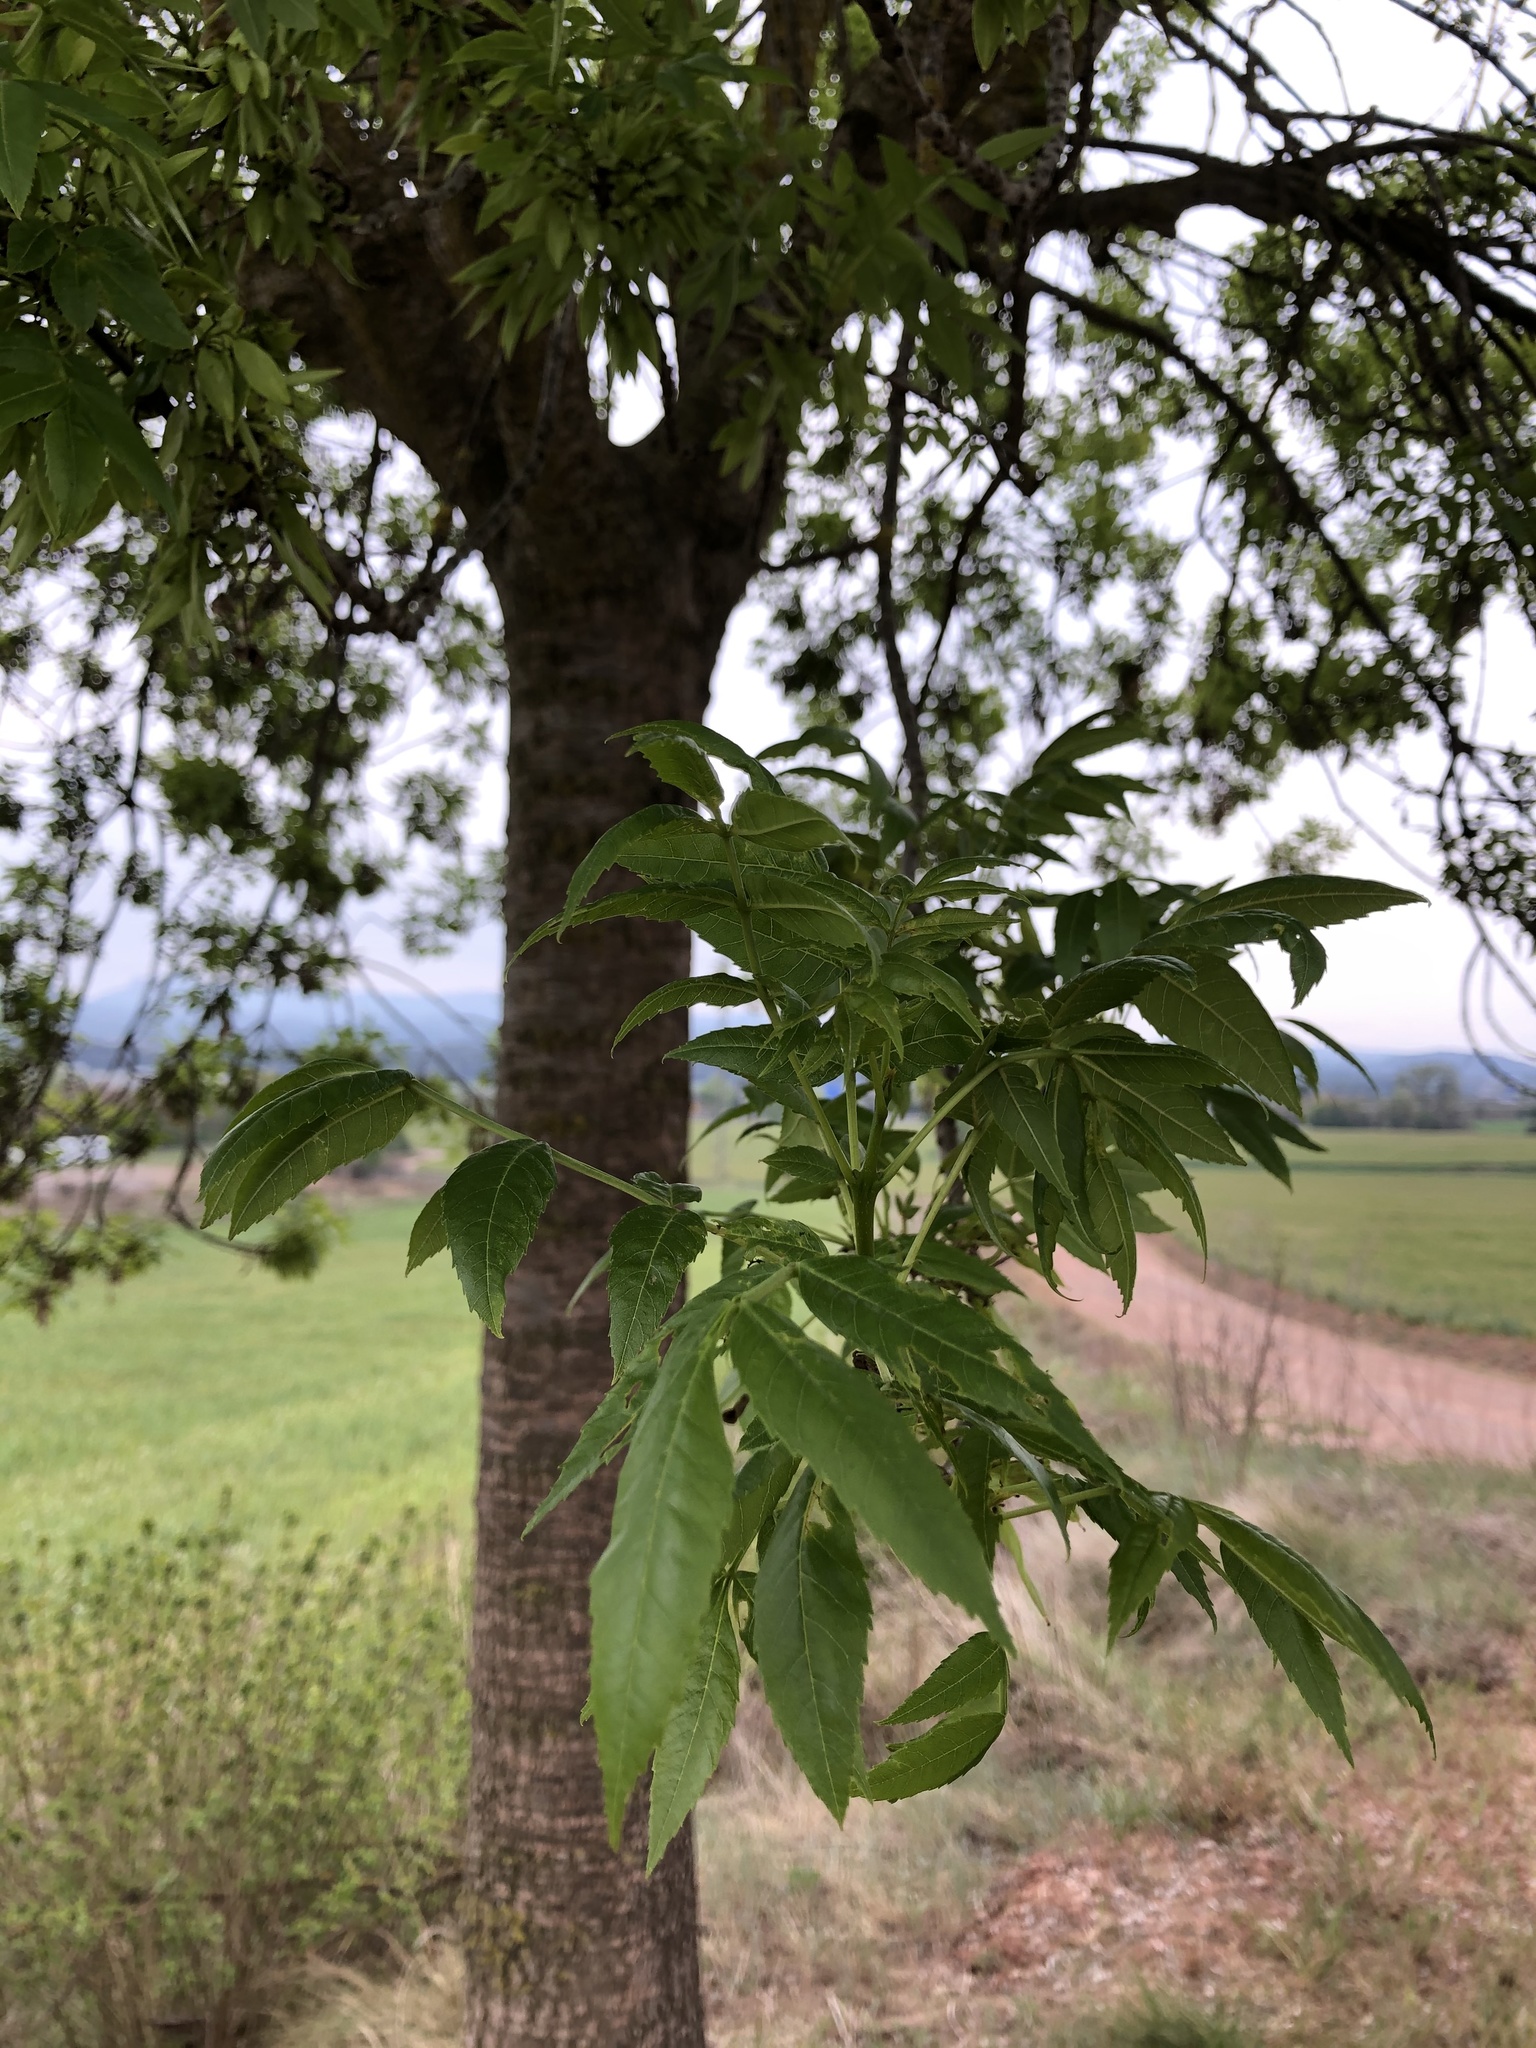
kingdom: Plantae
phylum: Tracheophyta
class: Magnoliopsida
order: Lamiales
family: Oleaceae
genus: Fraxinus
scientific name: Fraxinus angustifolia
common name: Narrow-leafed ash
